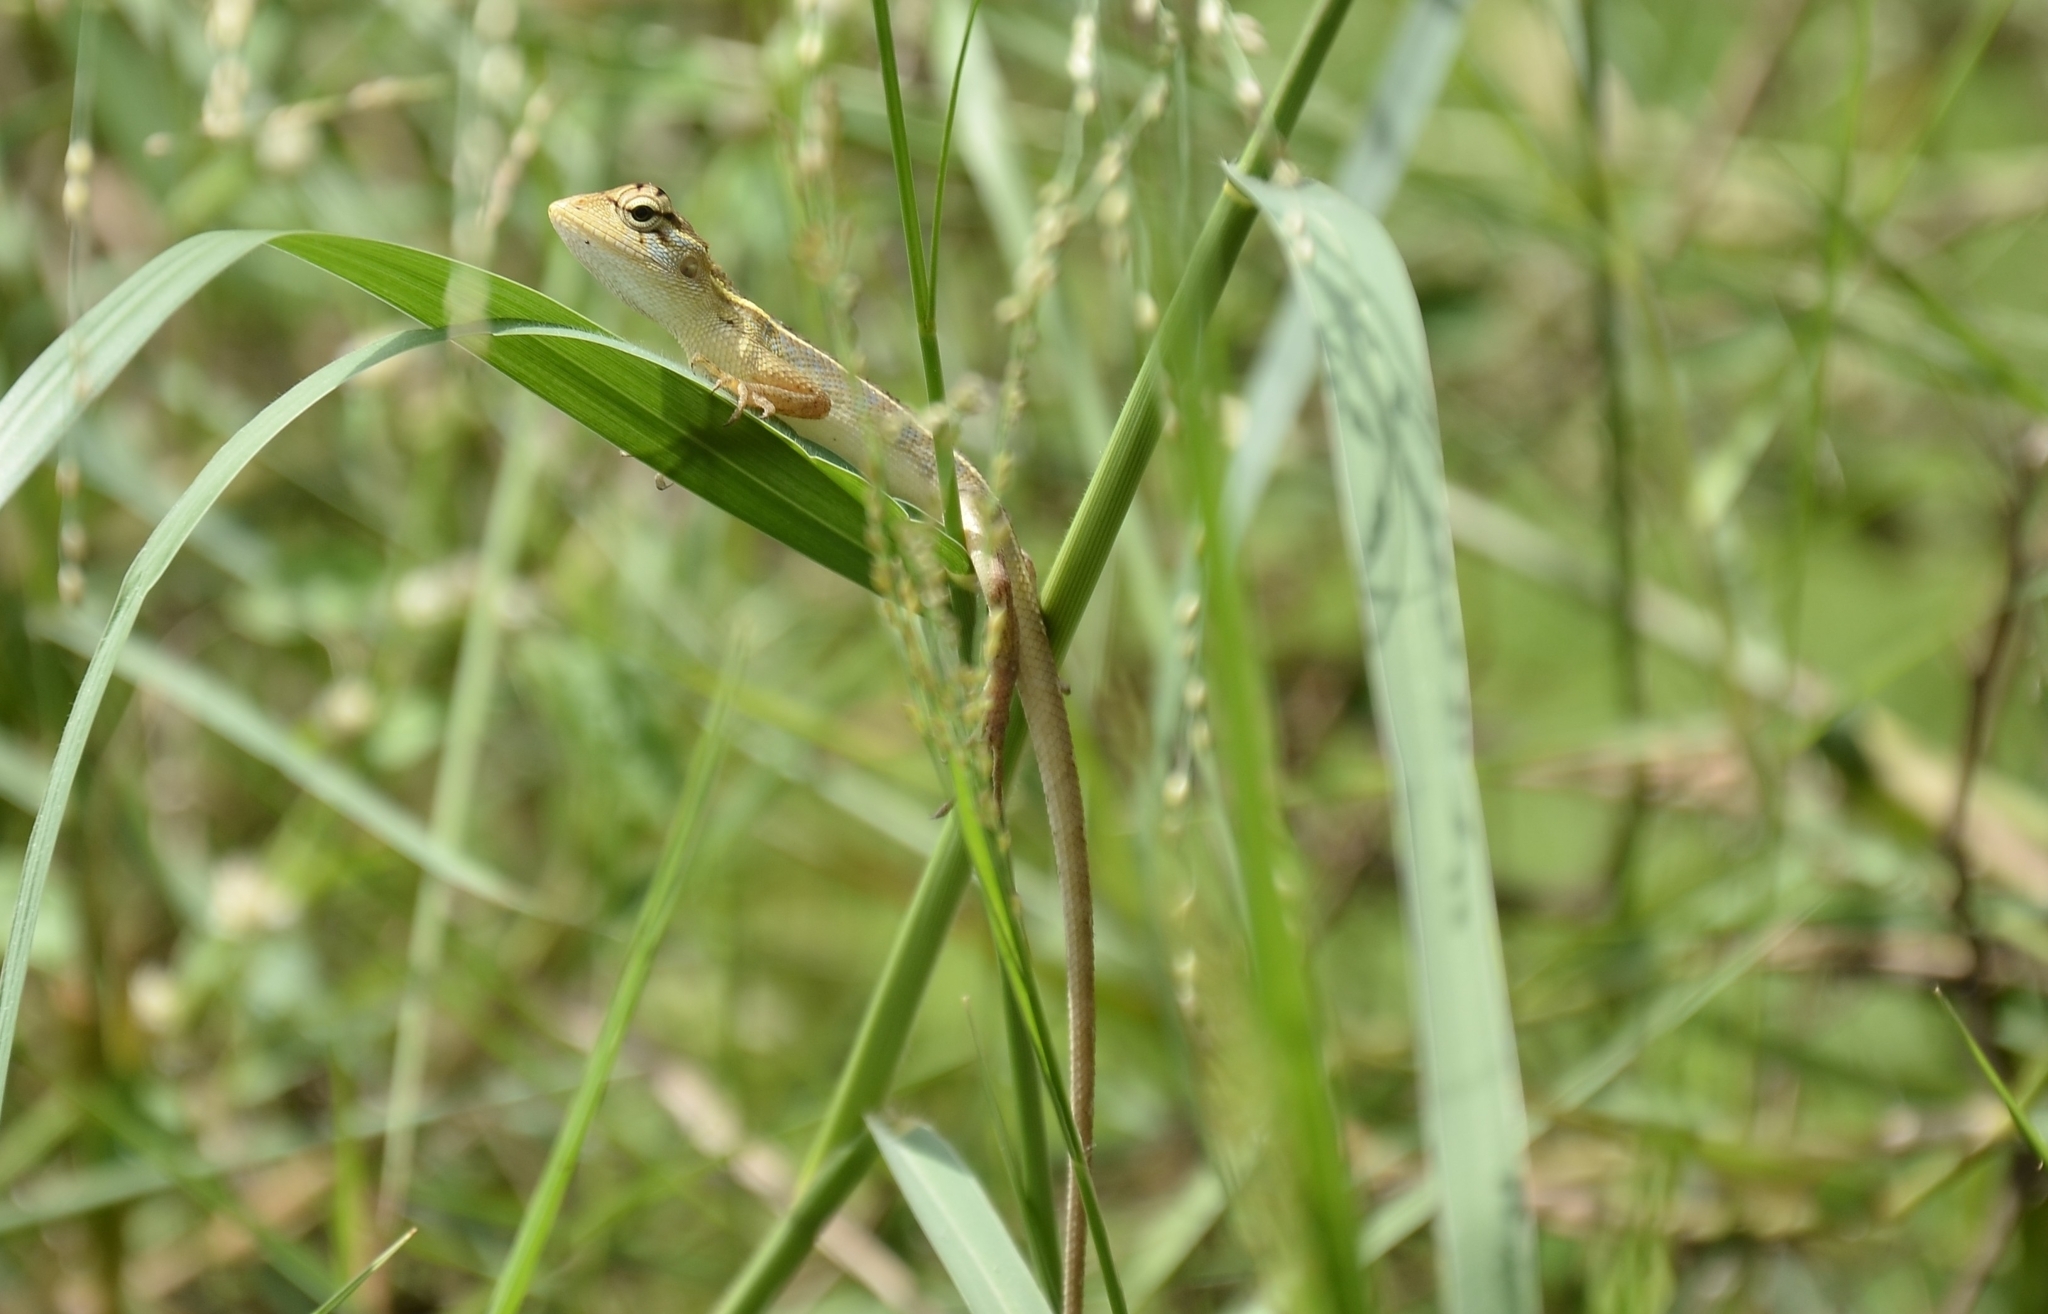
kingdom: Animalia
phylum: Chordata
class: Squamata
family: Agamidae
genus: Calotes
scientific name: Calotes versicolor
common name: Oriental garden lizard
